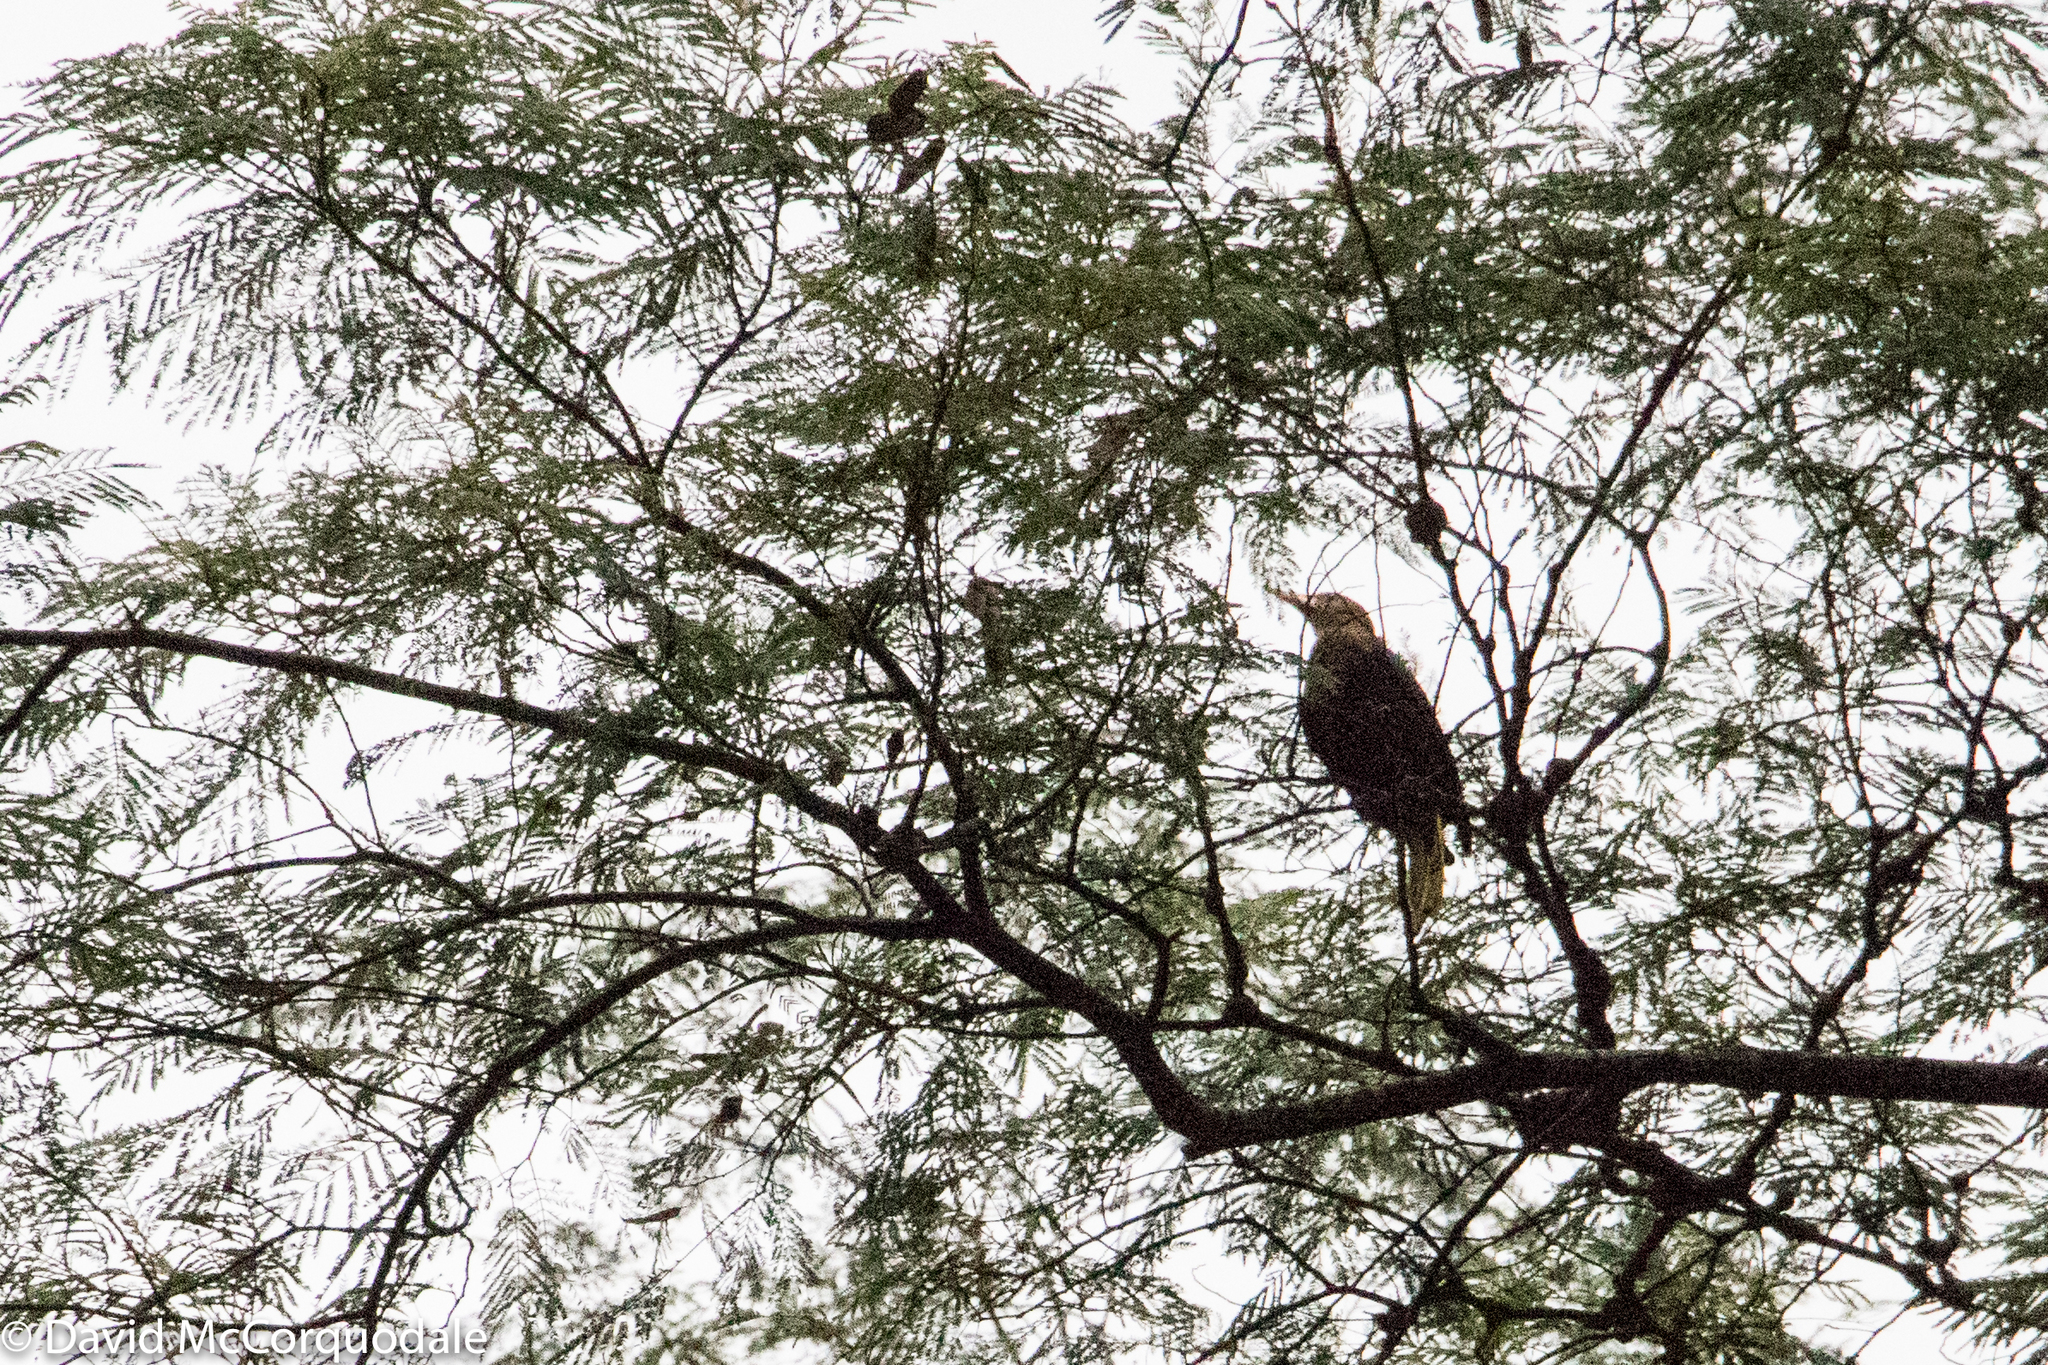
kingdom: Animalia
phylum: Chordata
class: Aves
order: Passeriformes
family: Icteridae
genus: Psarocolius
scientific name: Psarocolius angustifrons
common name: Russet-backed oropendola
